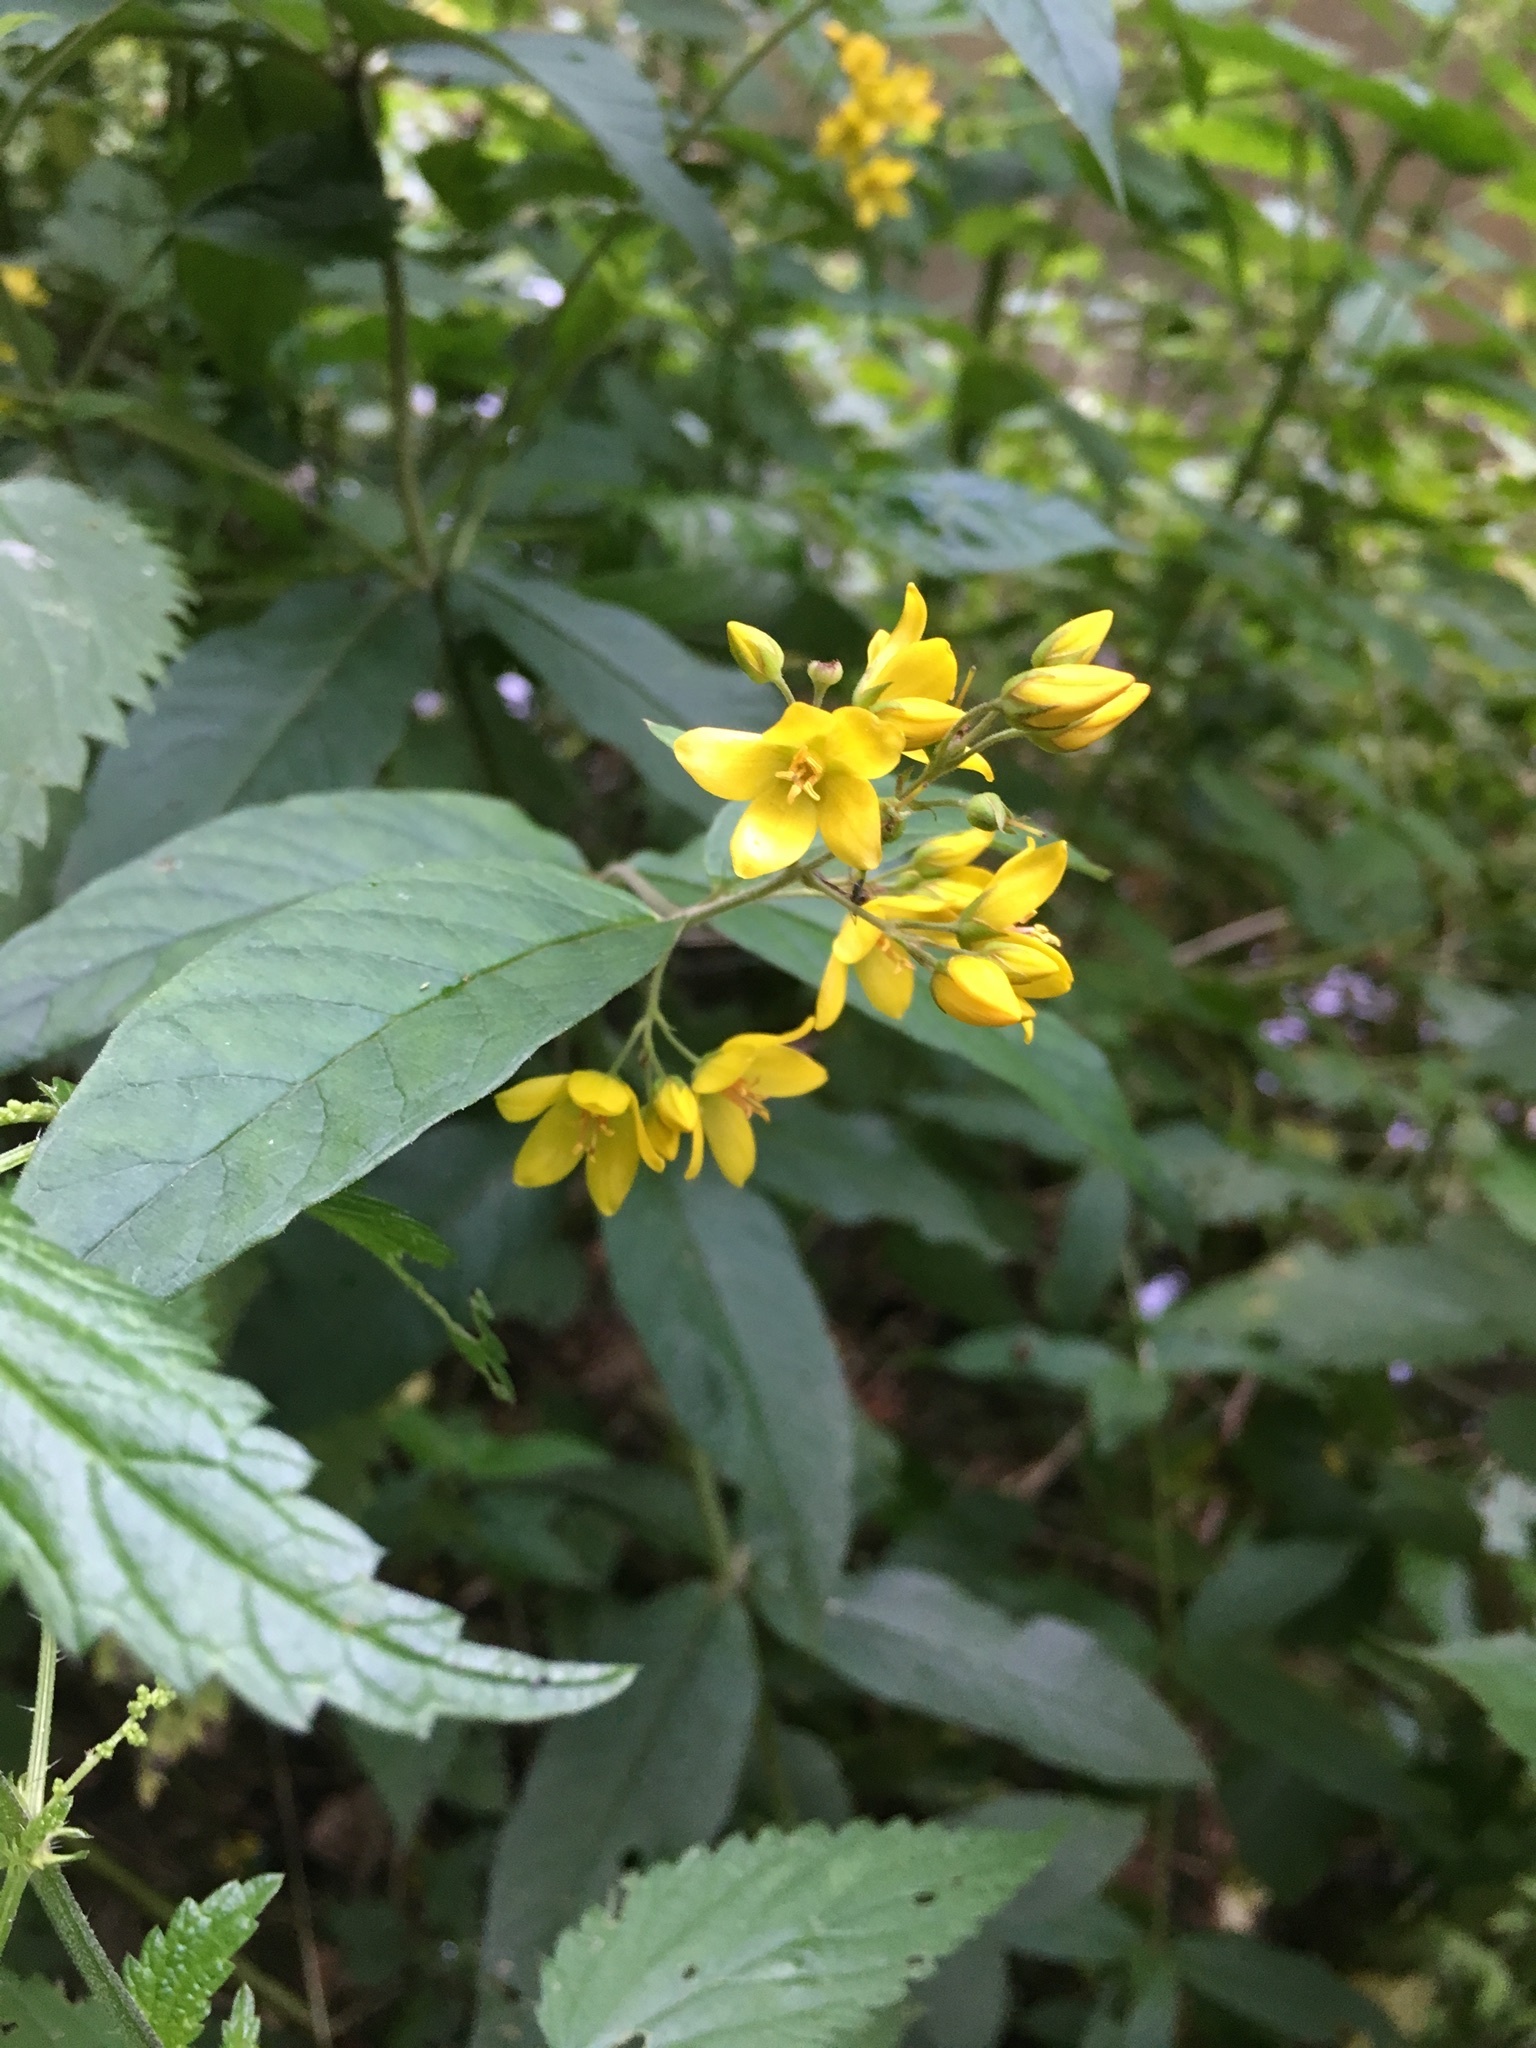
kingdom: Plantae
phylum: Tracheophyta
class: Magnoliopsida
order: Ericales
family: Primulaceae
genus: Lysimachia
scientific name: Lysimachia vulgaris
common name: Yellow loosestrife
